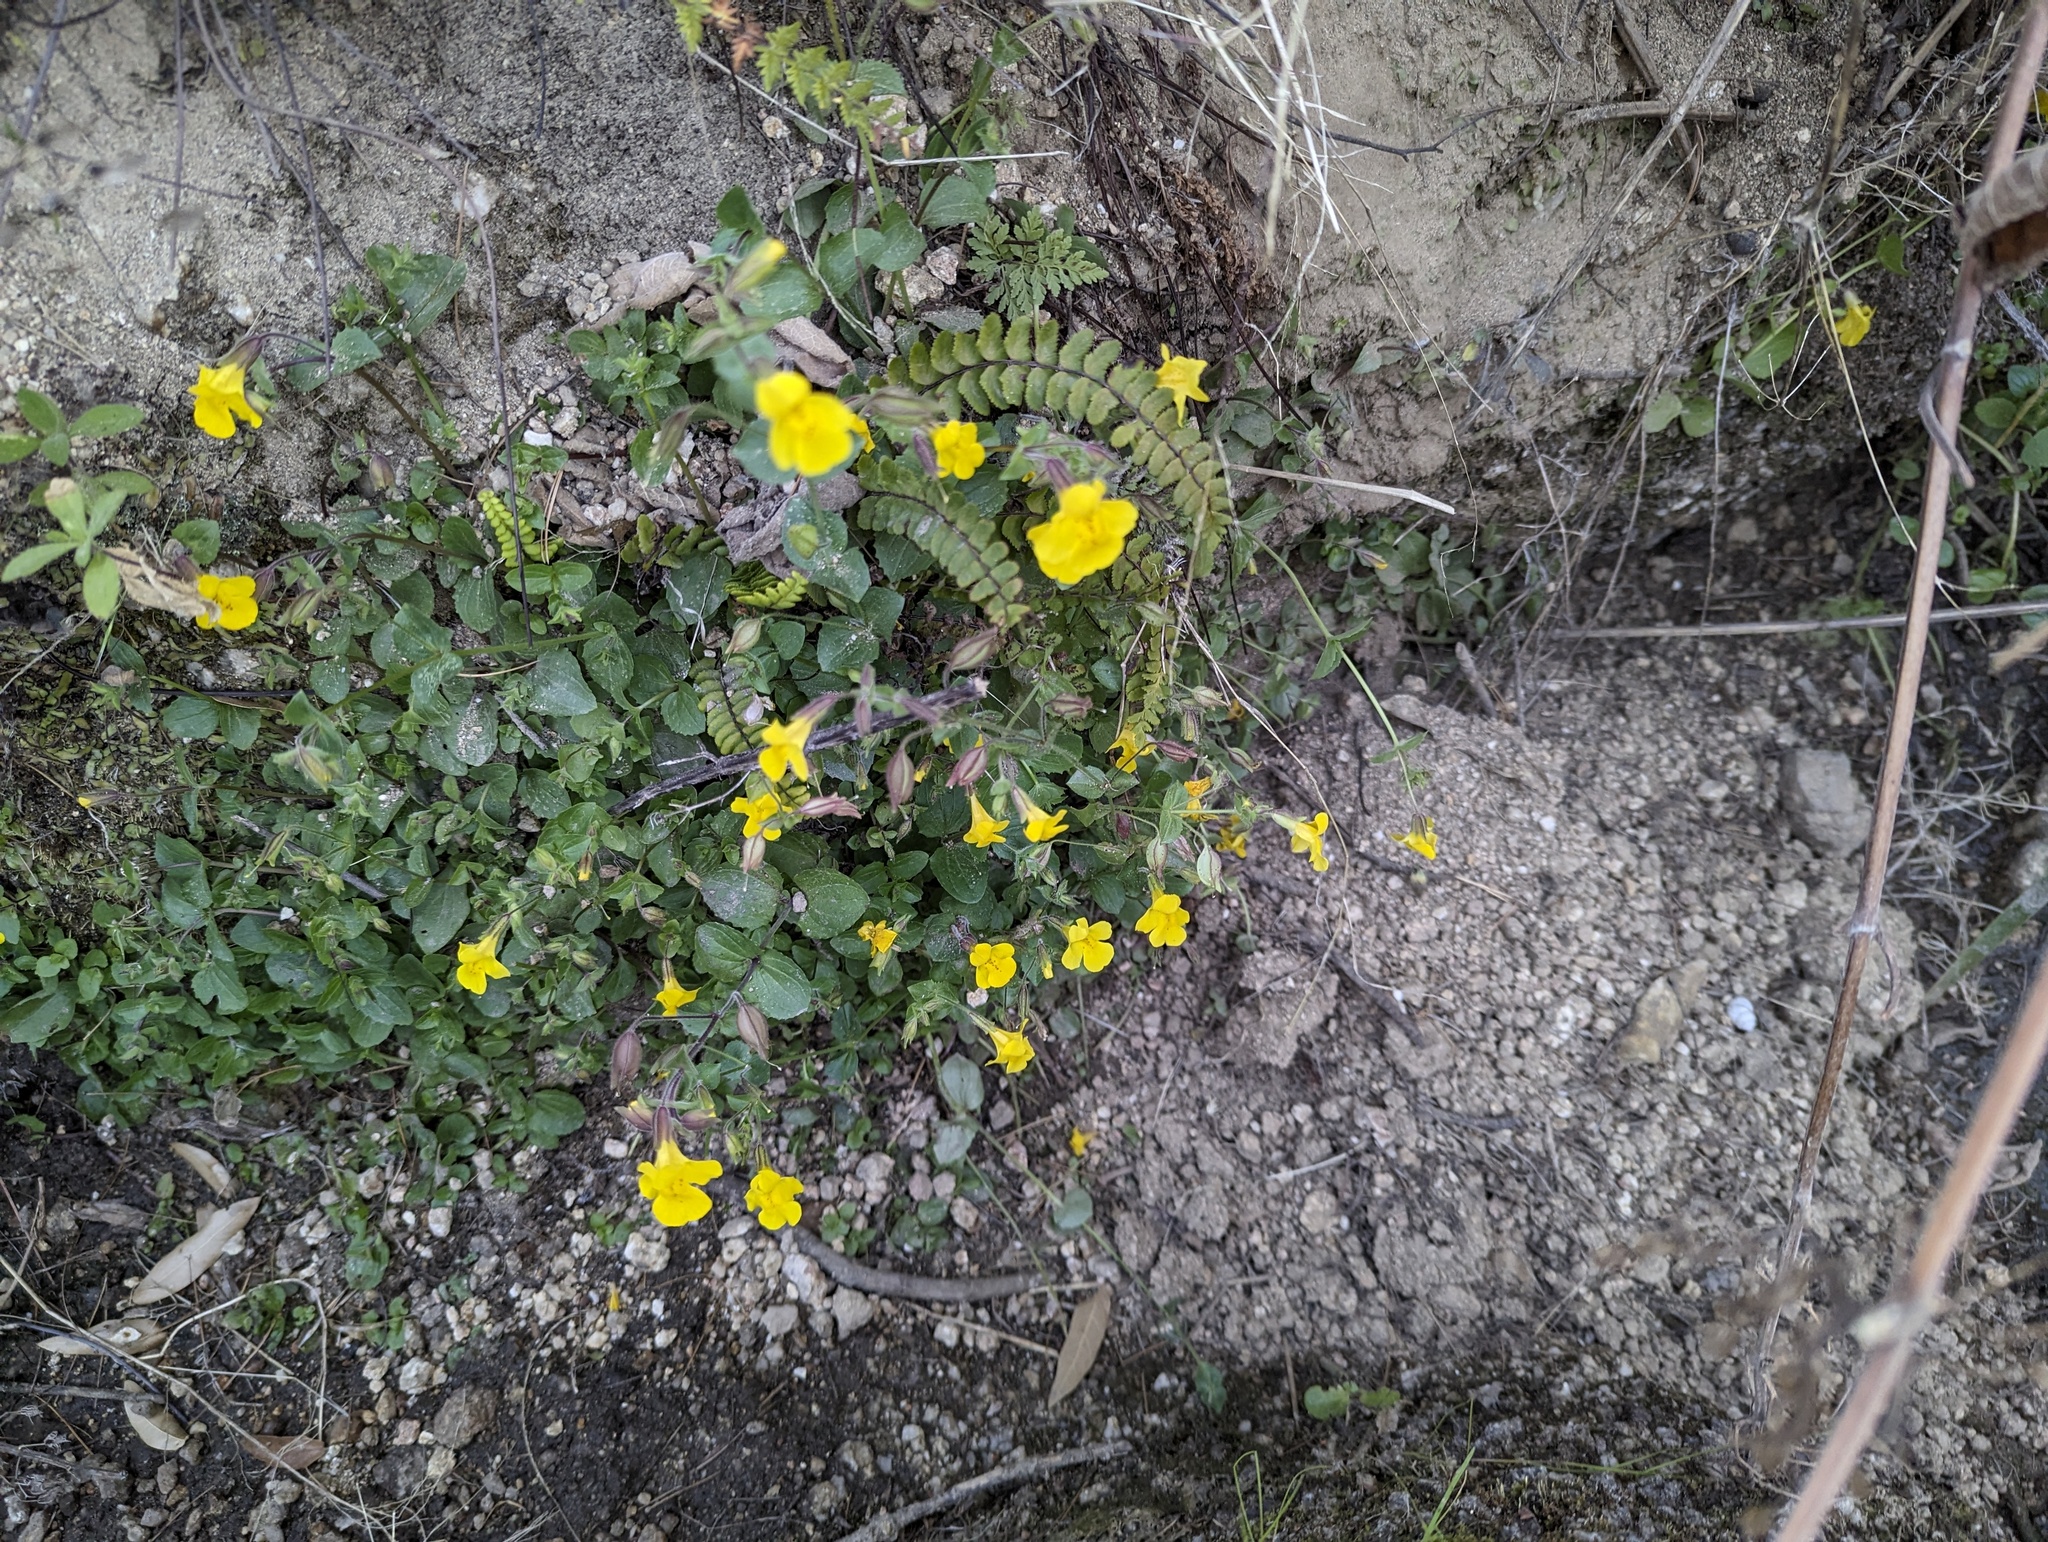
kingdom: Plantae
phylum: Tracheophyta
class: Magnoliopsida
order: Lamiales
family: Phrymaceae
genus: Erythranthe
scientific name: Erythranthe lagunensis
